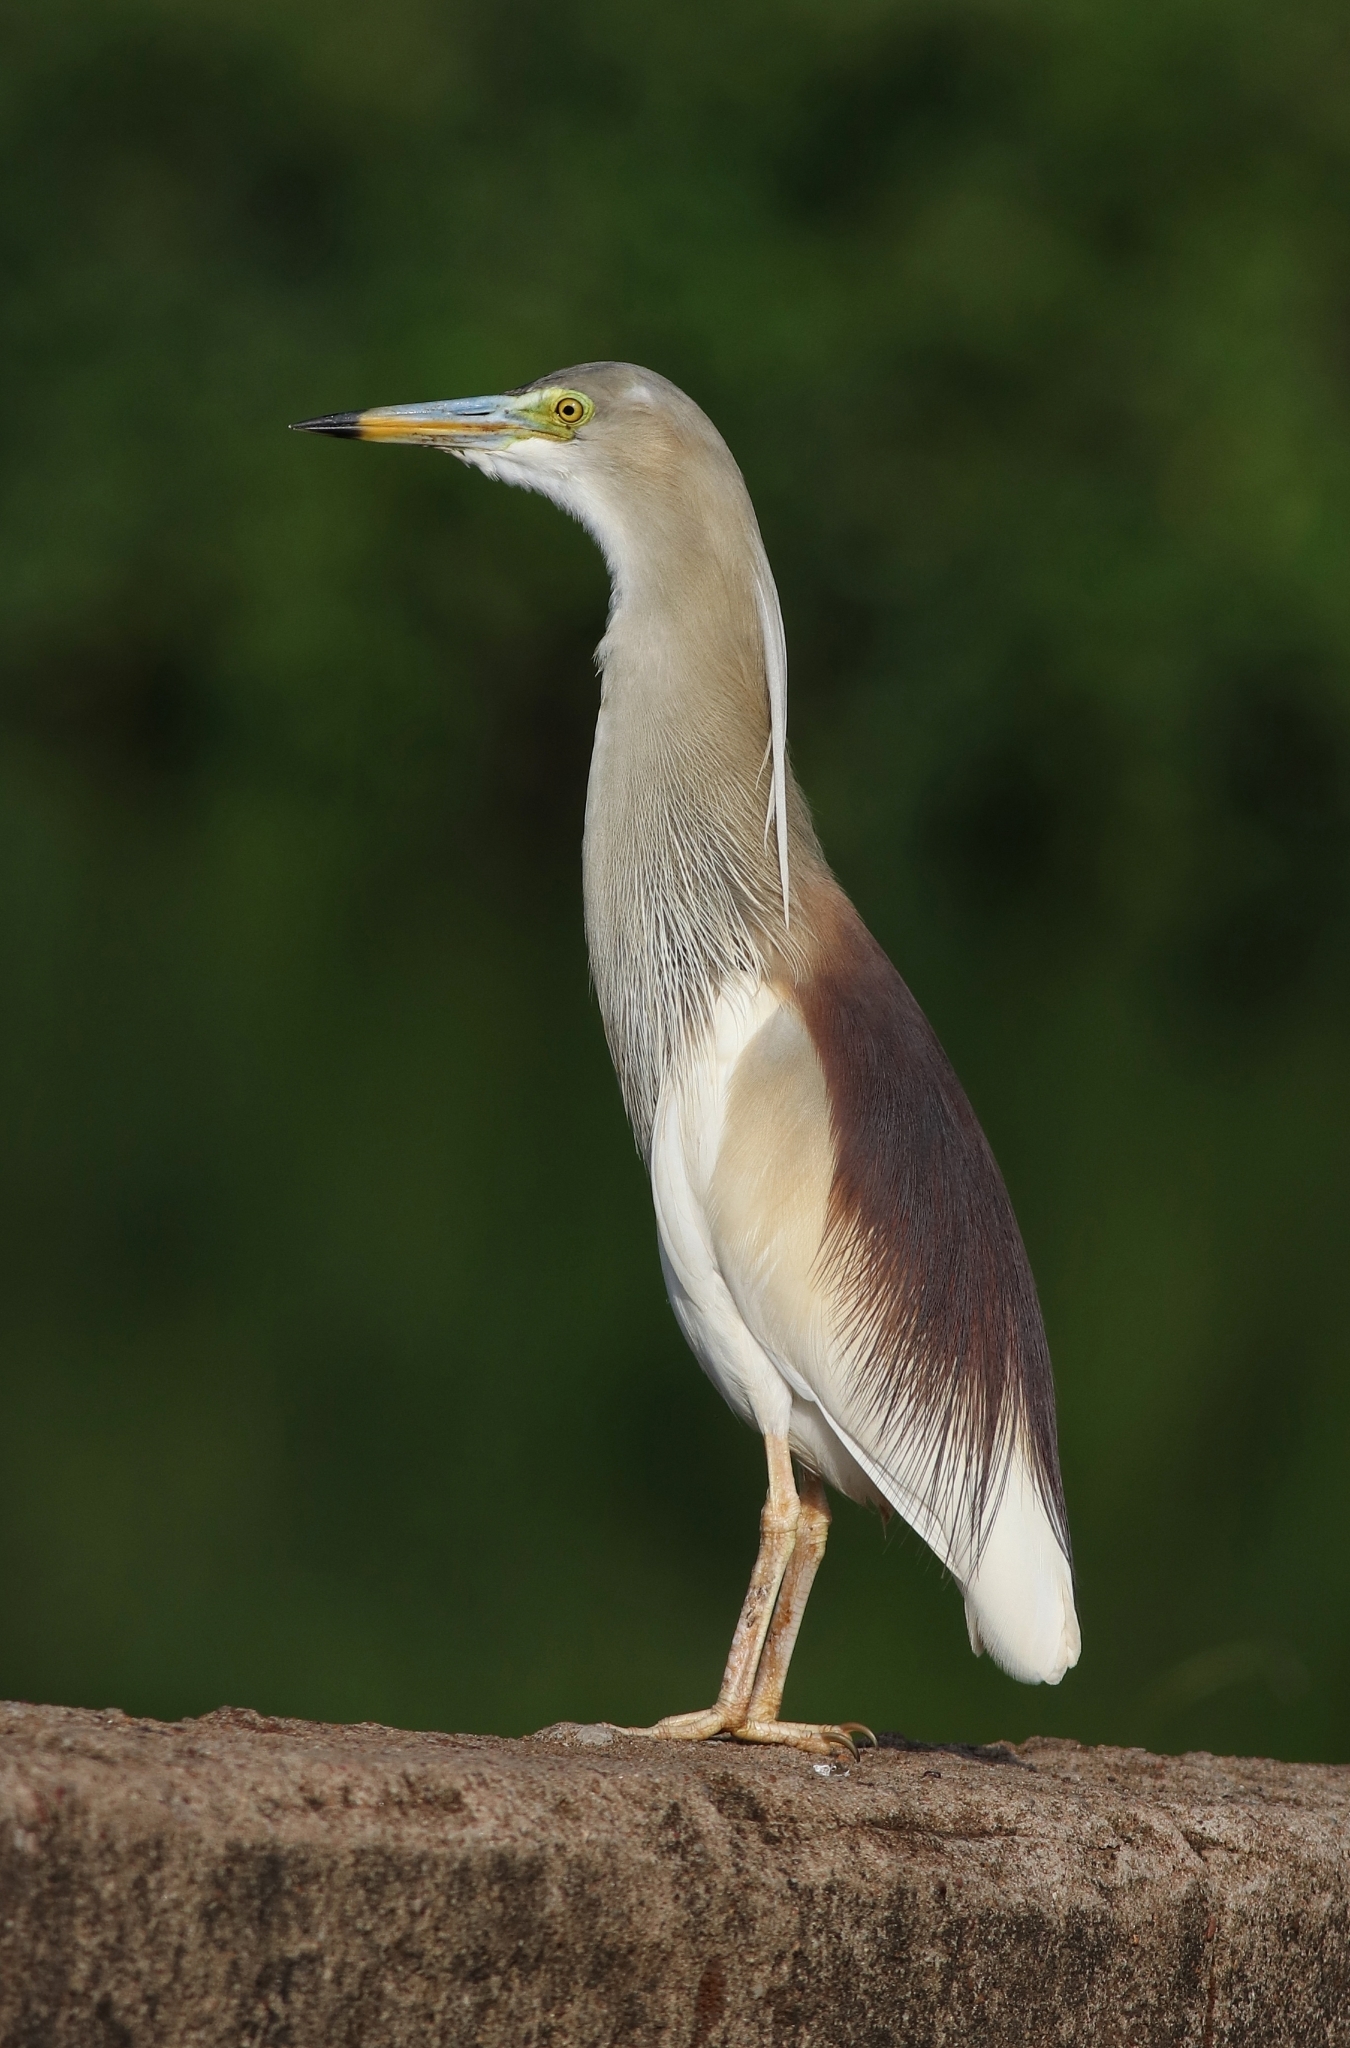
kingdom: Animalia
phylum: Chordata
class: Aves
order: Pelecaniformes
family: Ardeidae
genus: Ardeola
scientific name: Ardeola grayii
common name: Indian pond heron
